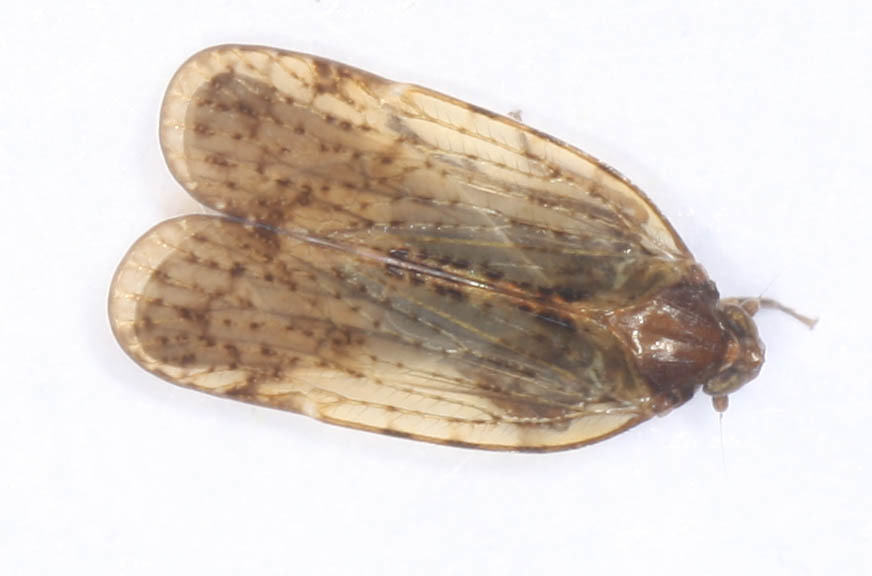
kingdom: Animalia
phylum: Arthropoda
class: Insecta
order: Hemiptera
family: Cixiidae
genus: Iolania
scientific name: Iolania perkinsi
